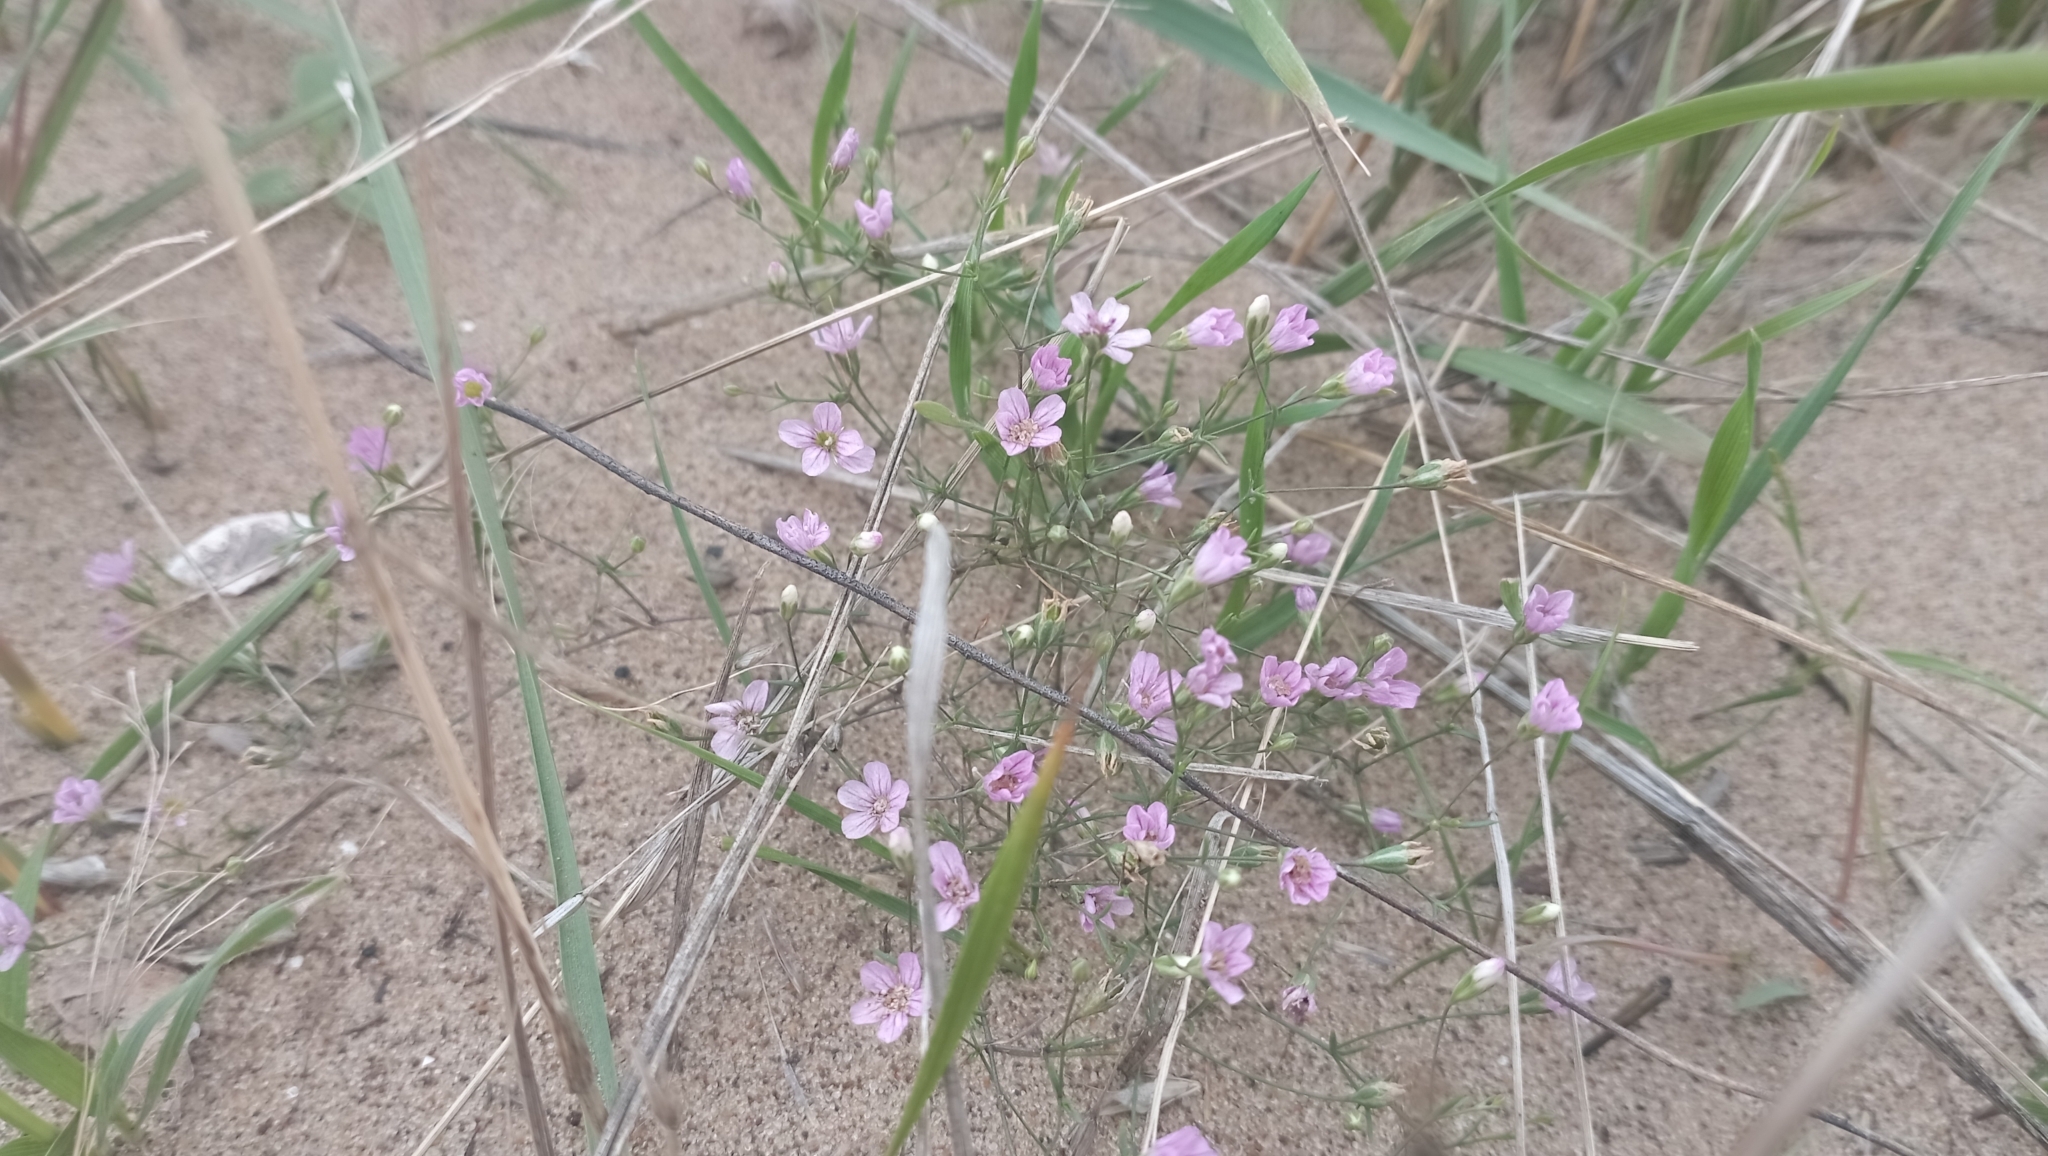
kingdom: Plantae
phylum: Tracheophyta
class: Magnoliopsida
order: Caryophyllales
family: Caryophyllaceae
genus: Psammophiliella
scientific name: Psammophiliella muralis
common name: Cushion baby's-breath
